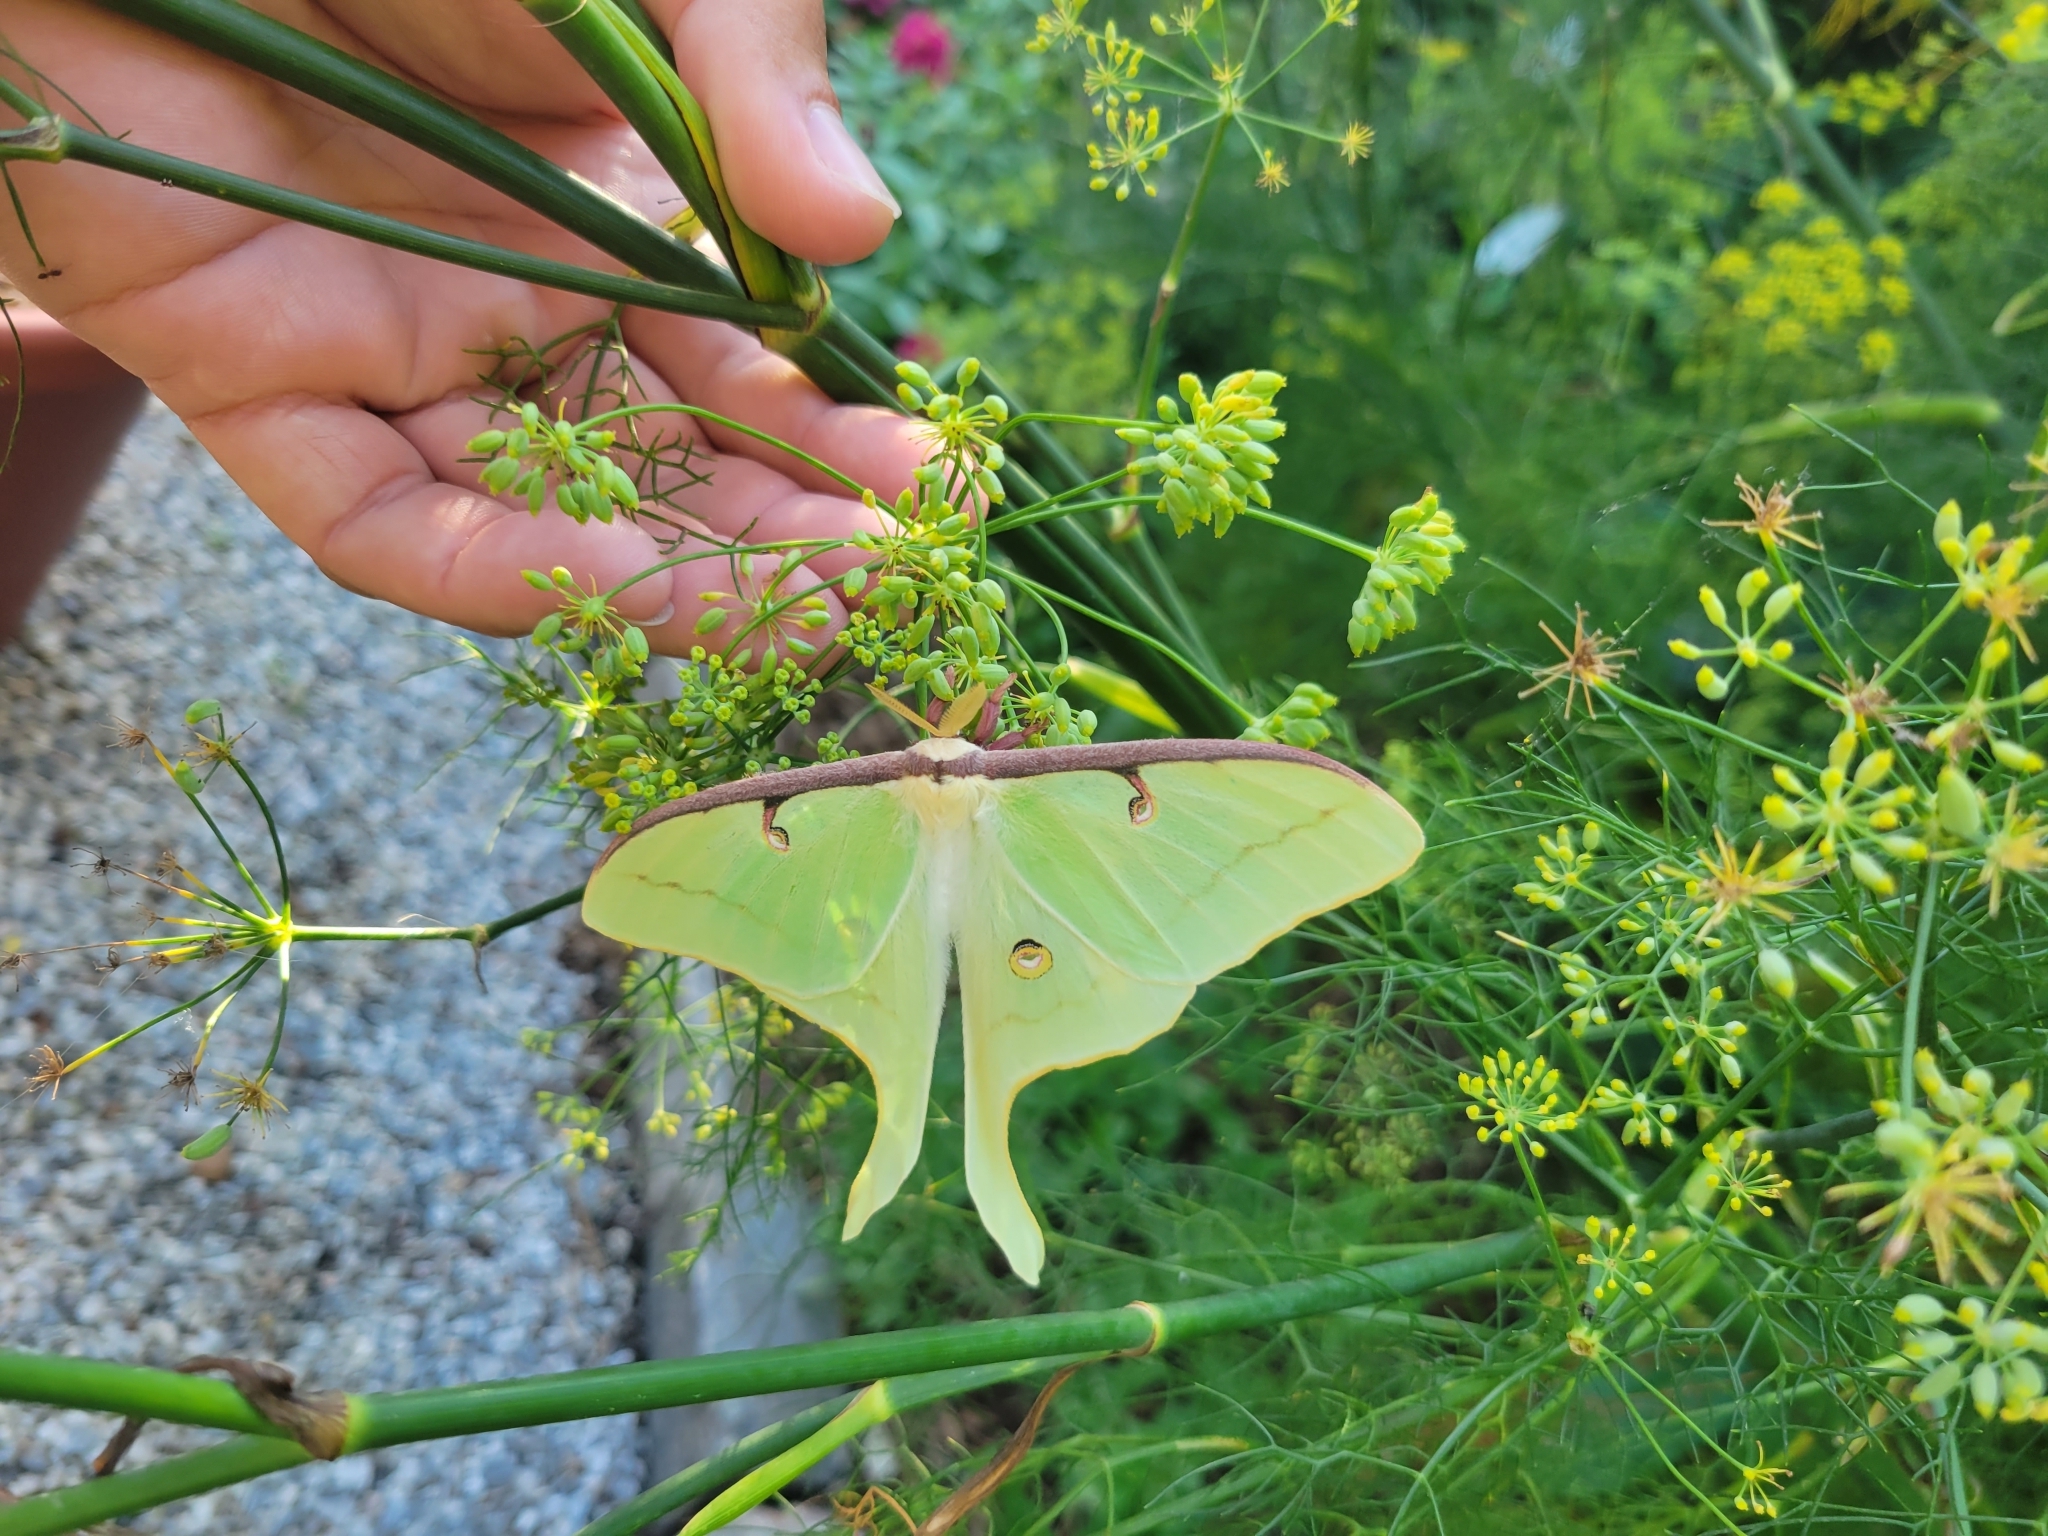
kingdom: Animalia
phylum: Arthropoda
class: Insecta
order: Lepidoptera
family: Saturniidae
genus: Actias
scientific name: Actias luna
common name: Luna moth
